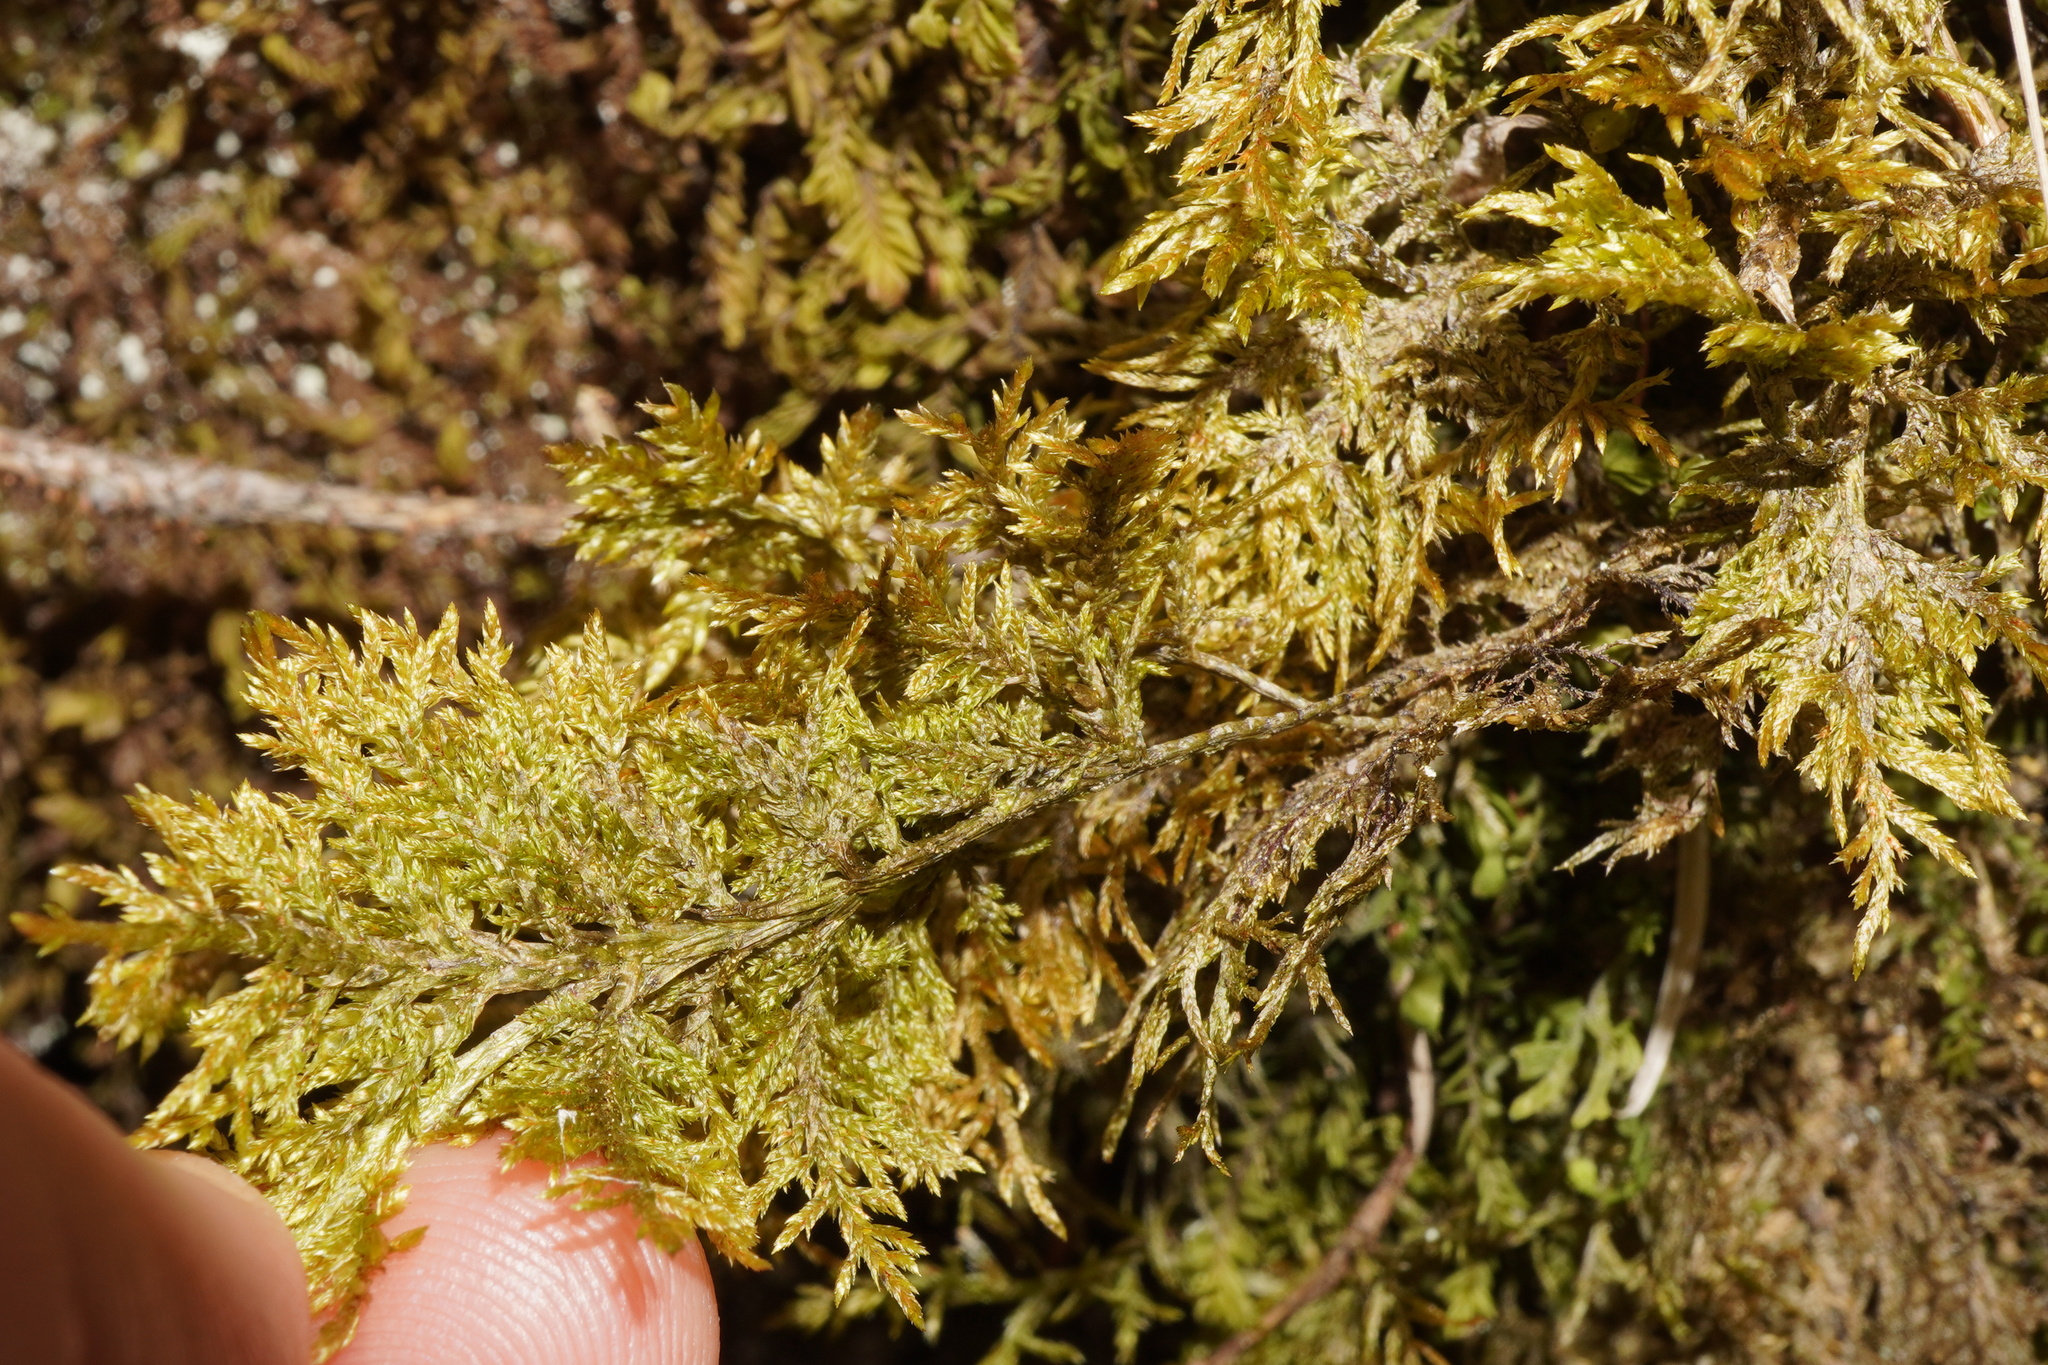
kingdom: Plantae
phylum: Bryophyta
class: Bryopsida
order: Hypnales
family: Hylocomiaceae
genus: Hylocomium
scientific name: Hylocomium splendens
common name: Stairstep moss
